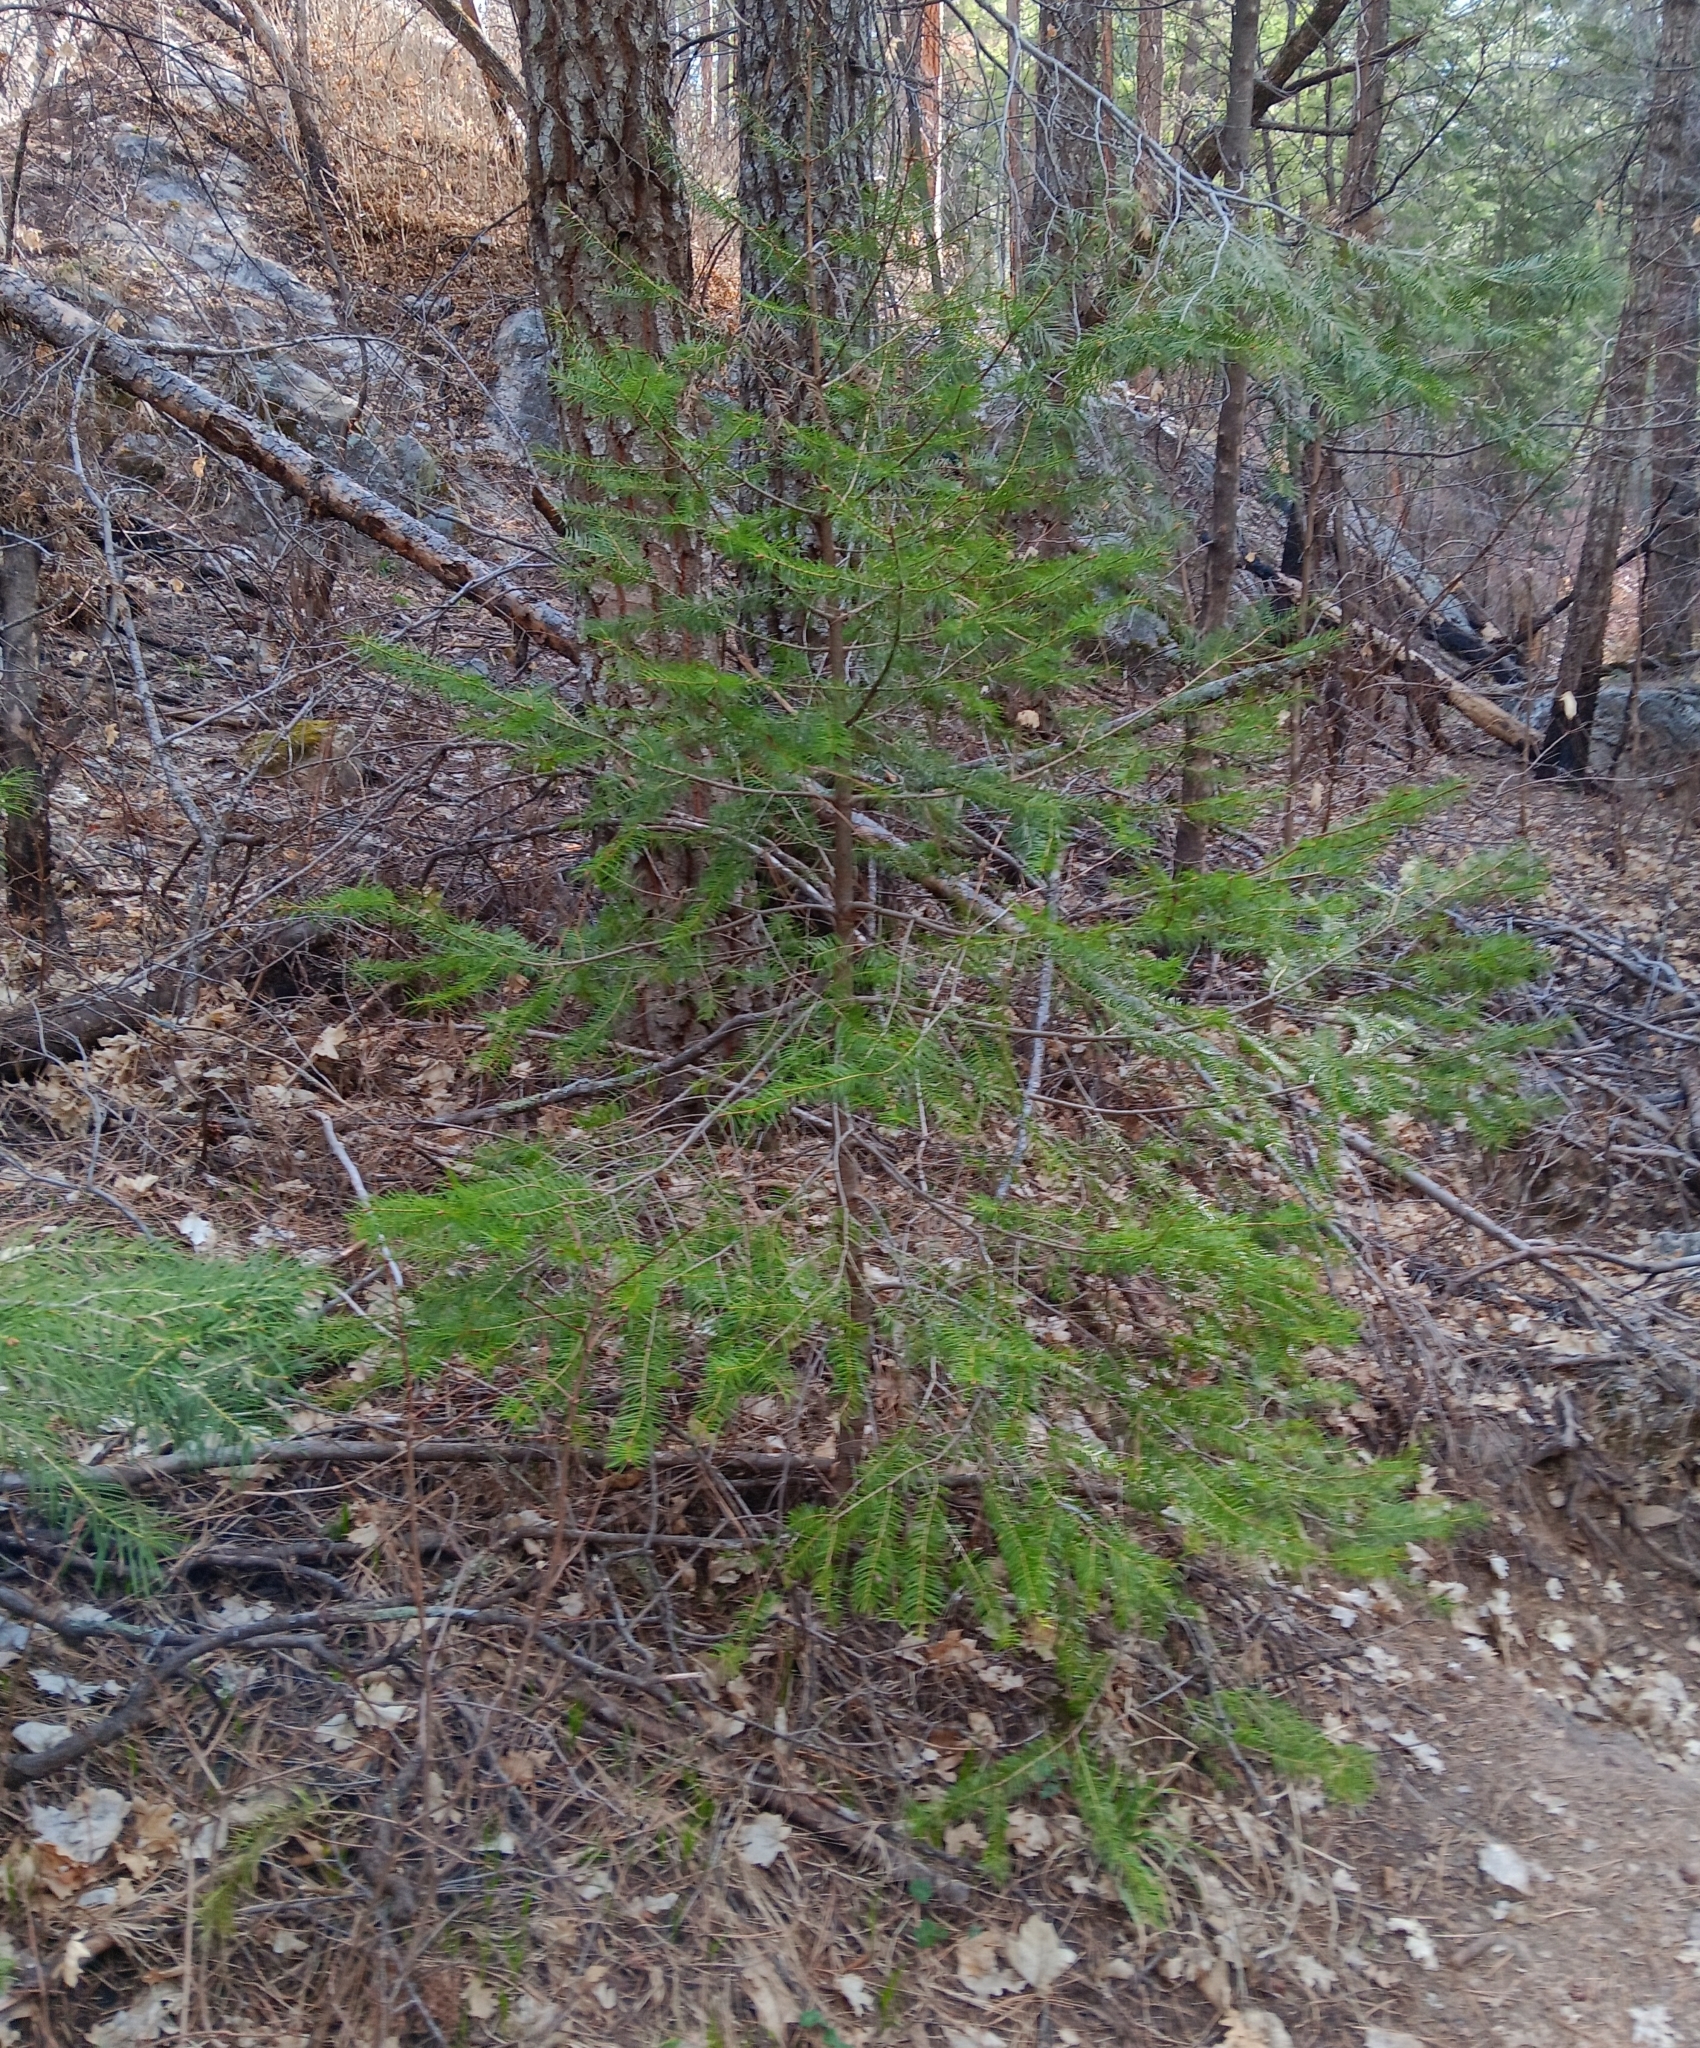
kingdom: Plantae
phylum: Tracheophyta
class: Pinopsida
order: Pinales
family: Pinaceae
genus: Pseudotsuga
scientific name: Pseudotsuga menziesii
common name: Douglas fir
